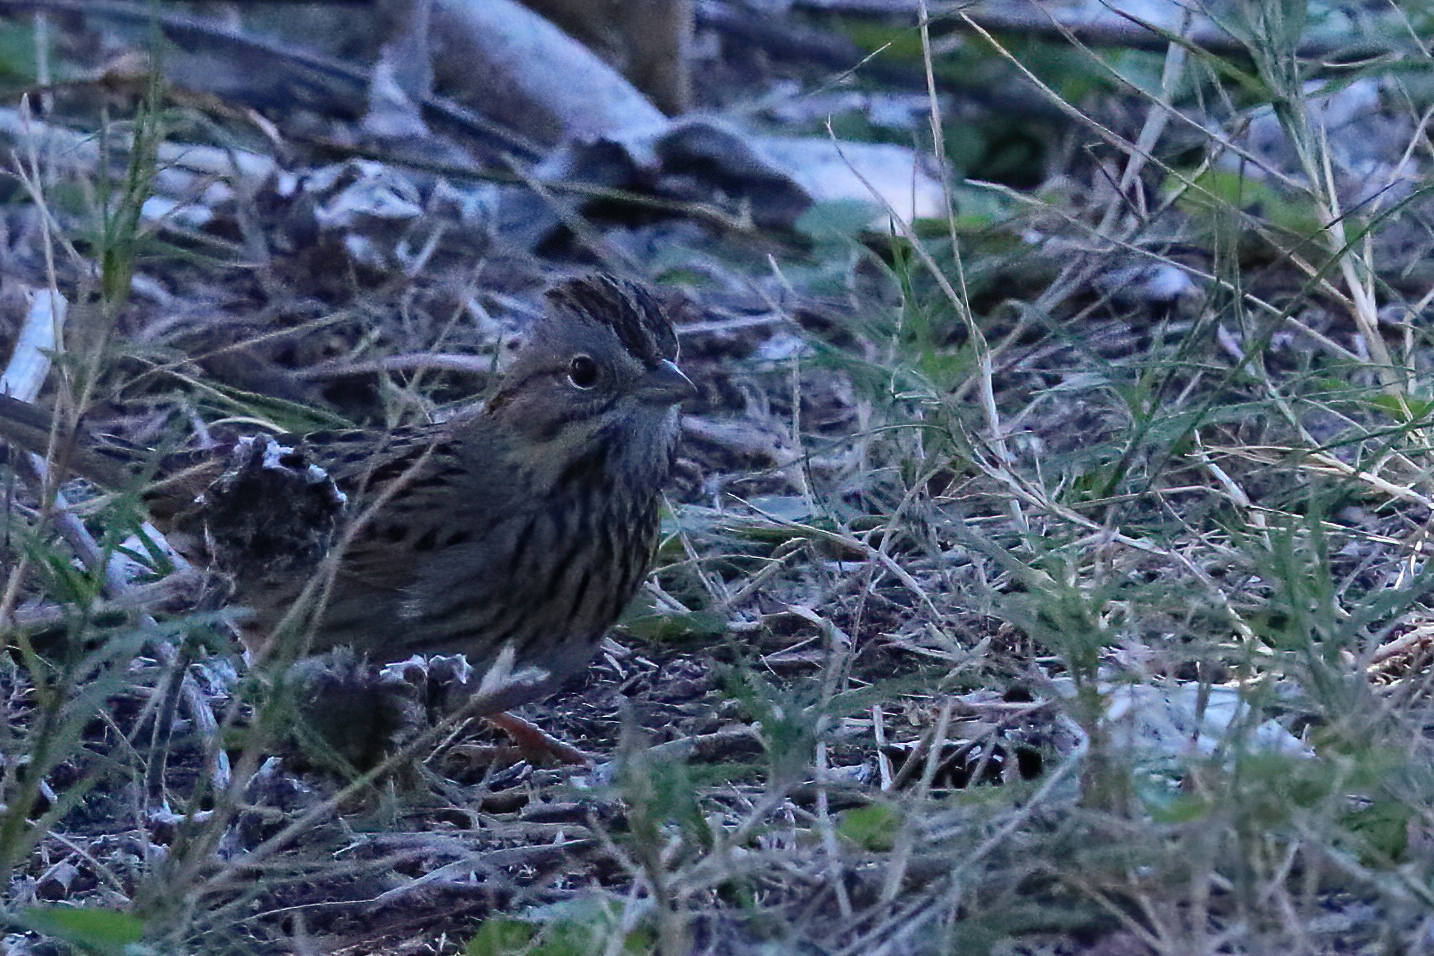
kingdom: Animalia
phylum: Chordata
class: Aves
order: Passeriformes
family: Passerellidae
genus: Melospiza
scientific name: Melospiza lincolnii
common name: Lincoln's sparrow
